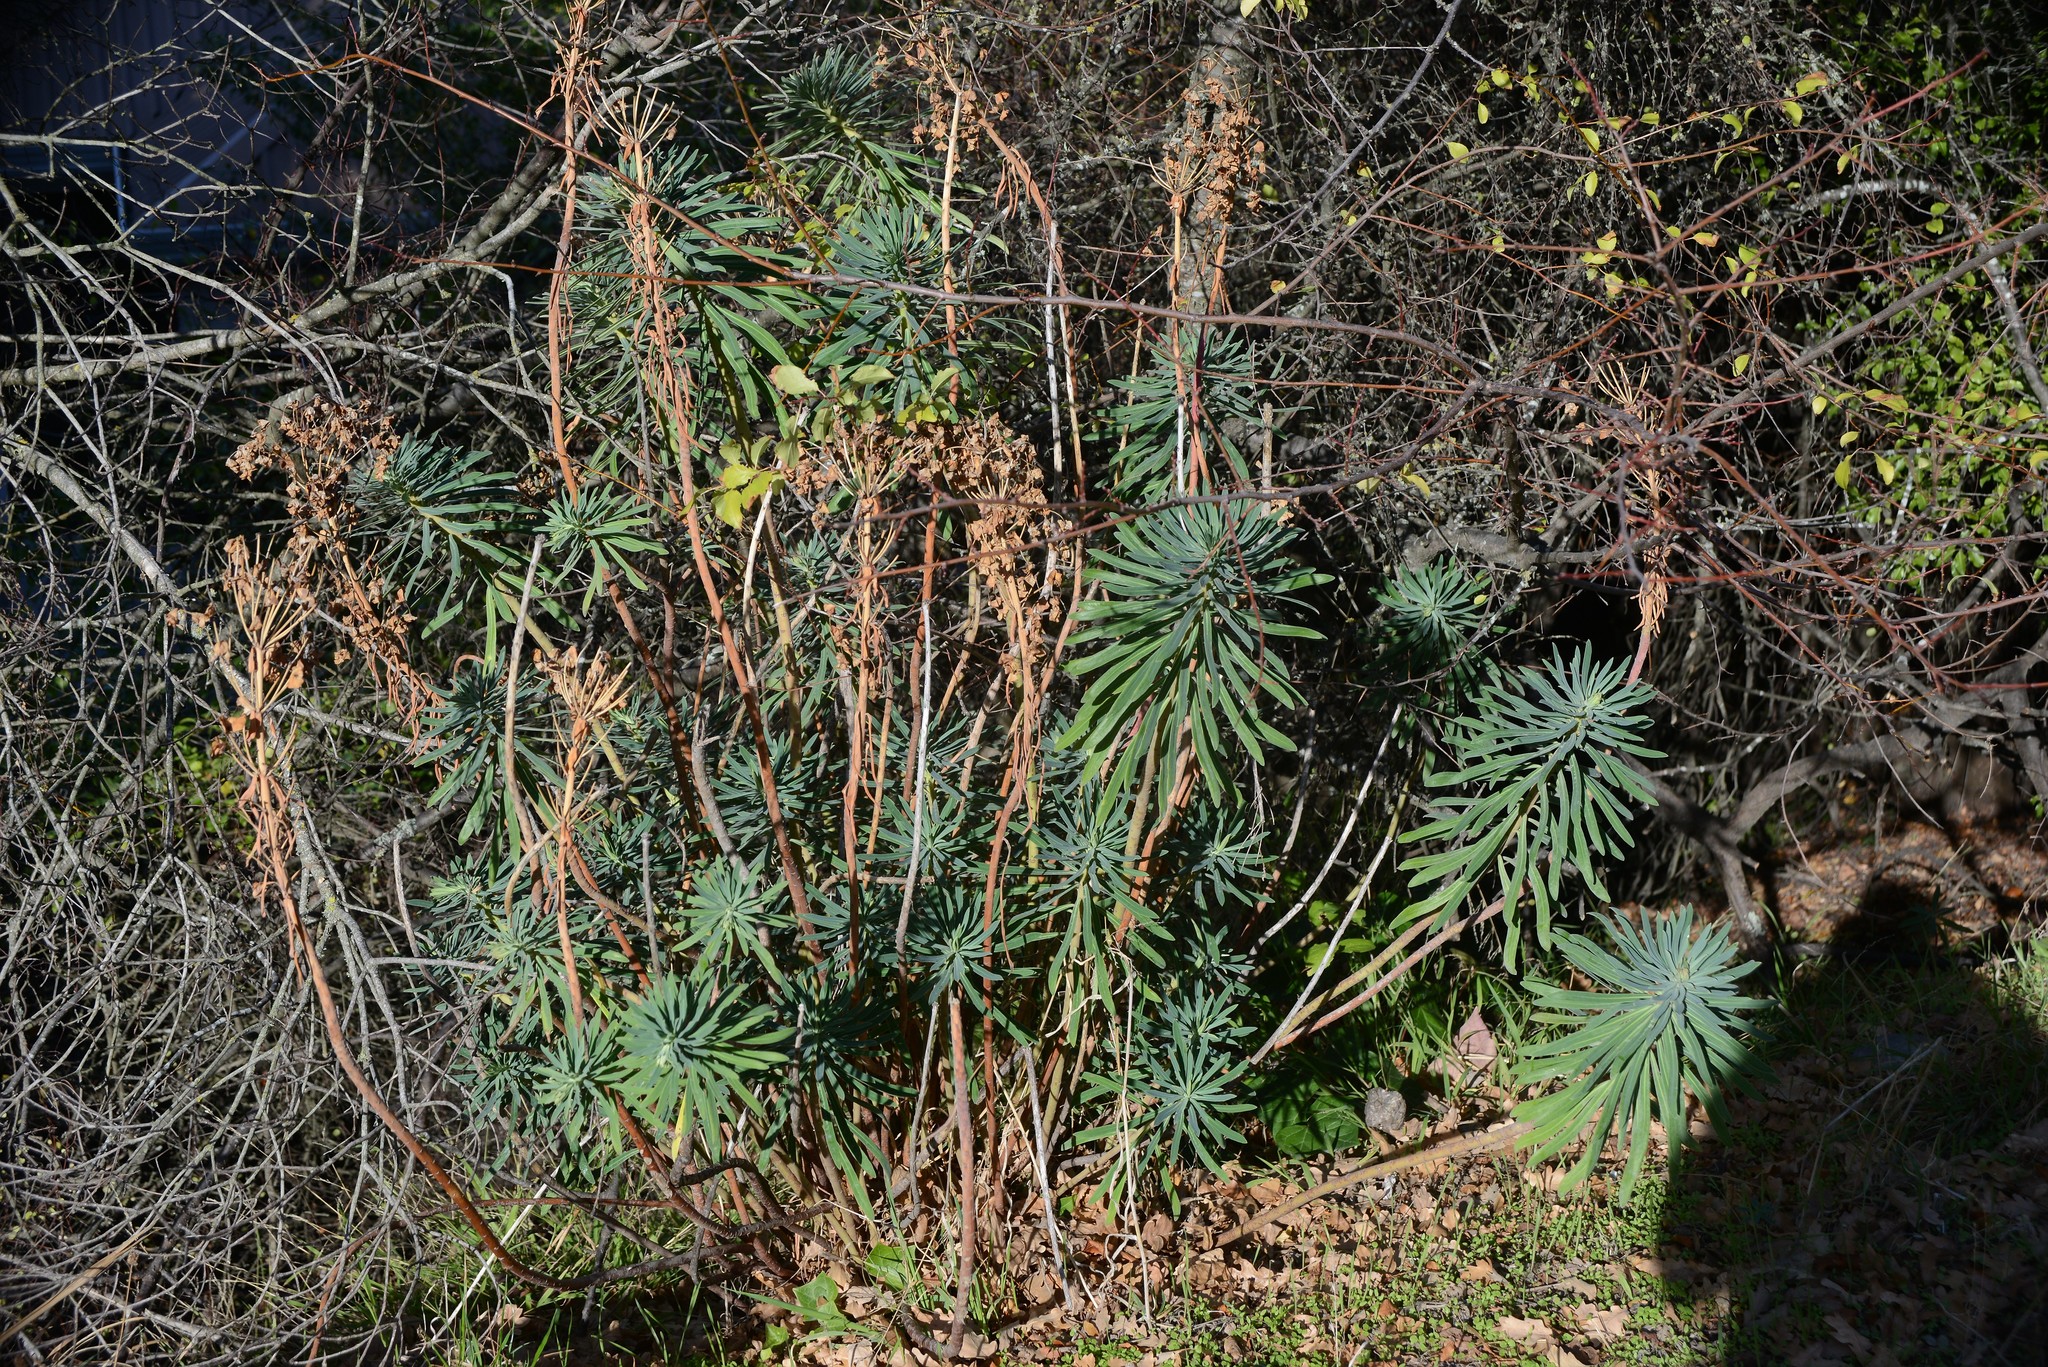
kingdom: Plantae
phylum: Tracheophyta
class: Magnoliopsida
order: Malpighiales
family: Euphorbiaceae
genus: Euphorbia
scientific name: Euphorbia characias
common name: Mediterranean spurge
